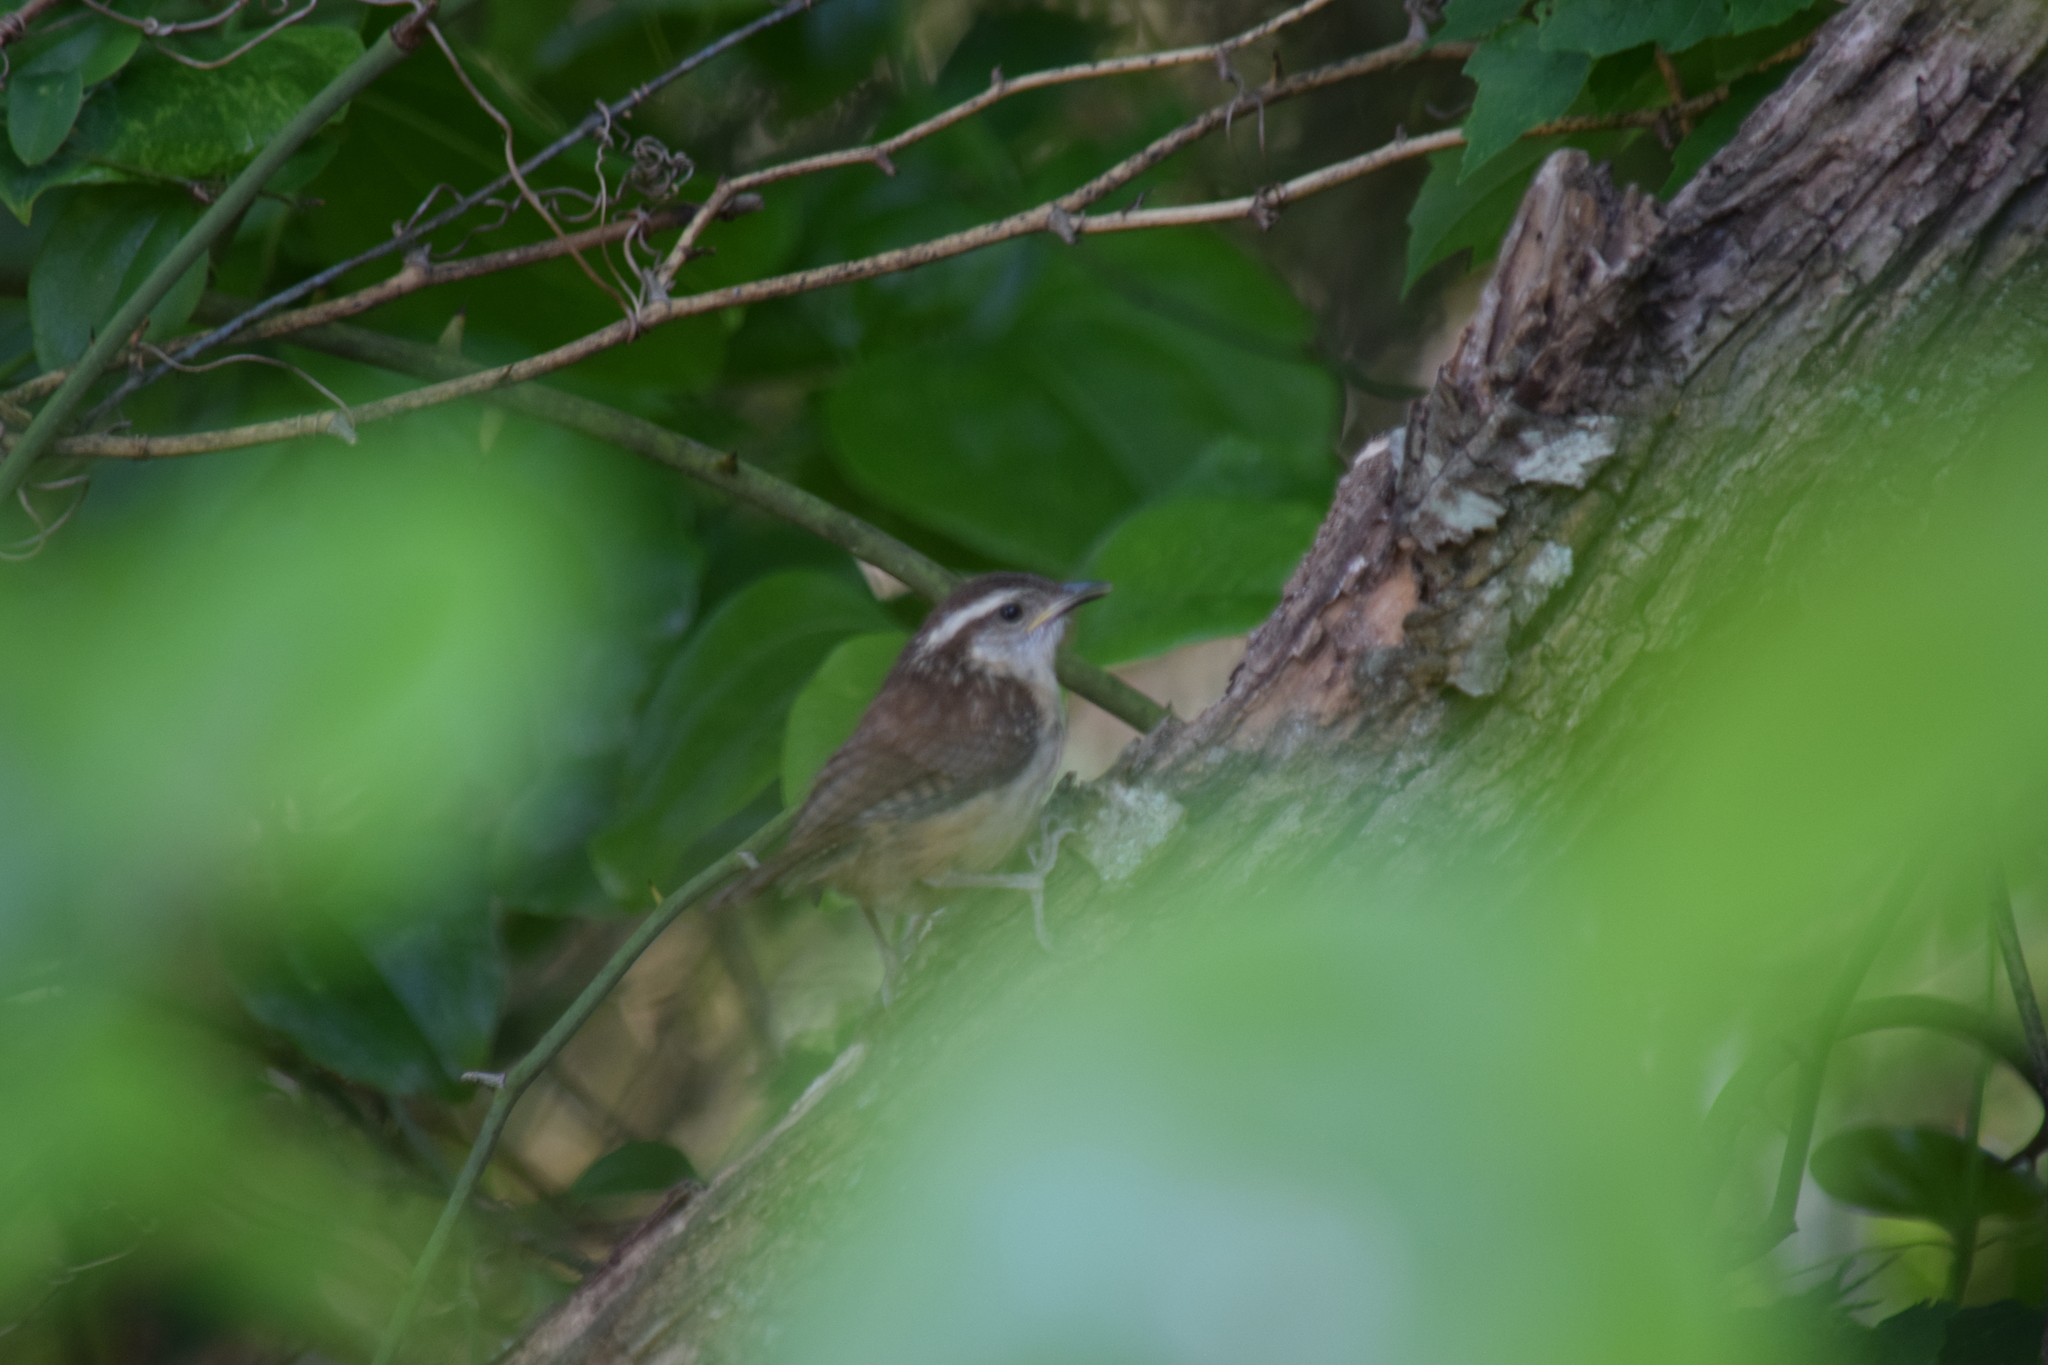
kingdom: Animalia
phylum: Chordata
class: Aves
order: Passeriformes
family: Troglodytidae
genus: Thryothorus
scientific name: Thryothorus ludovicianus
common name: Carolina wren
